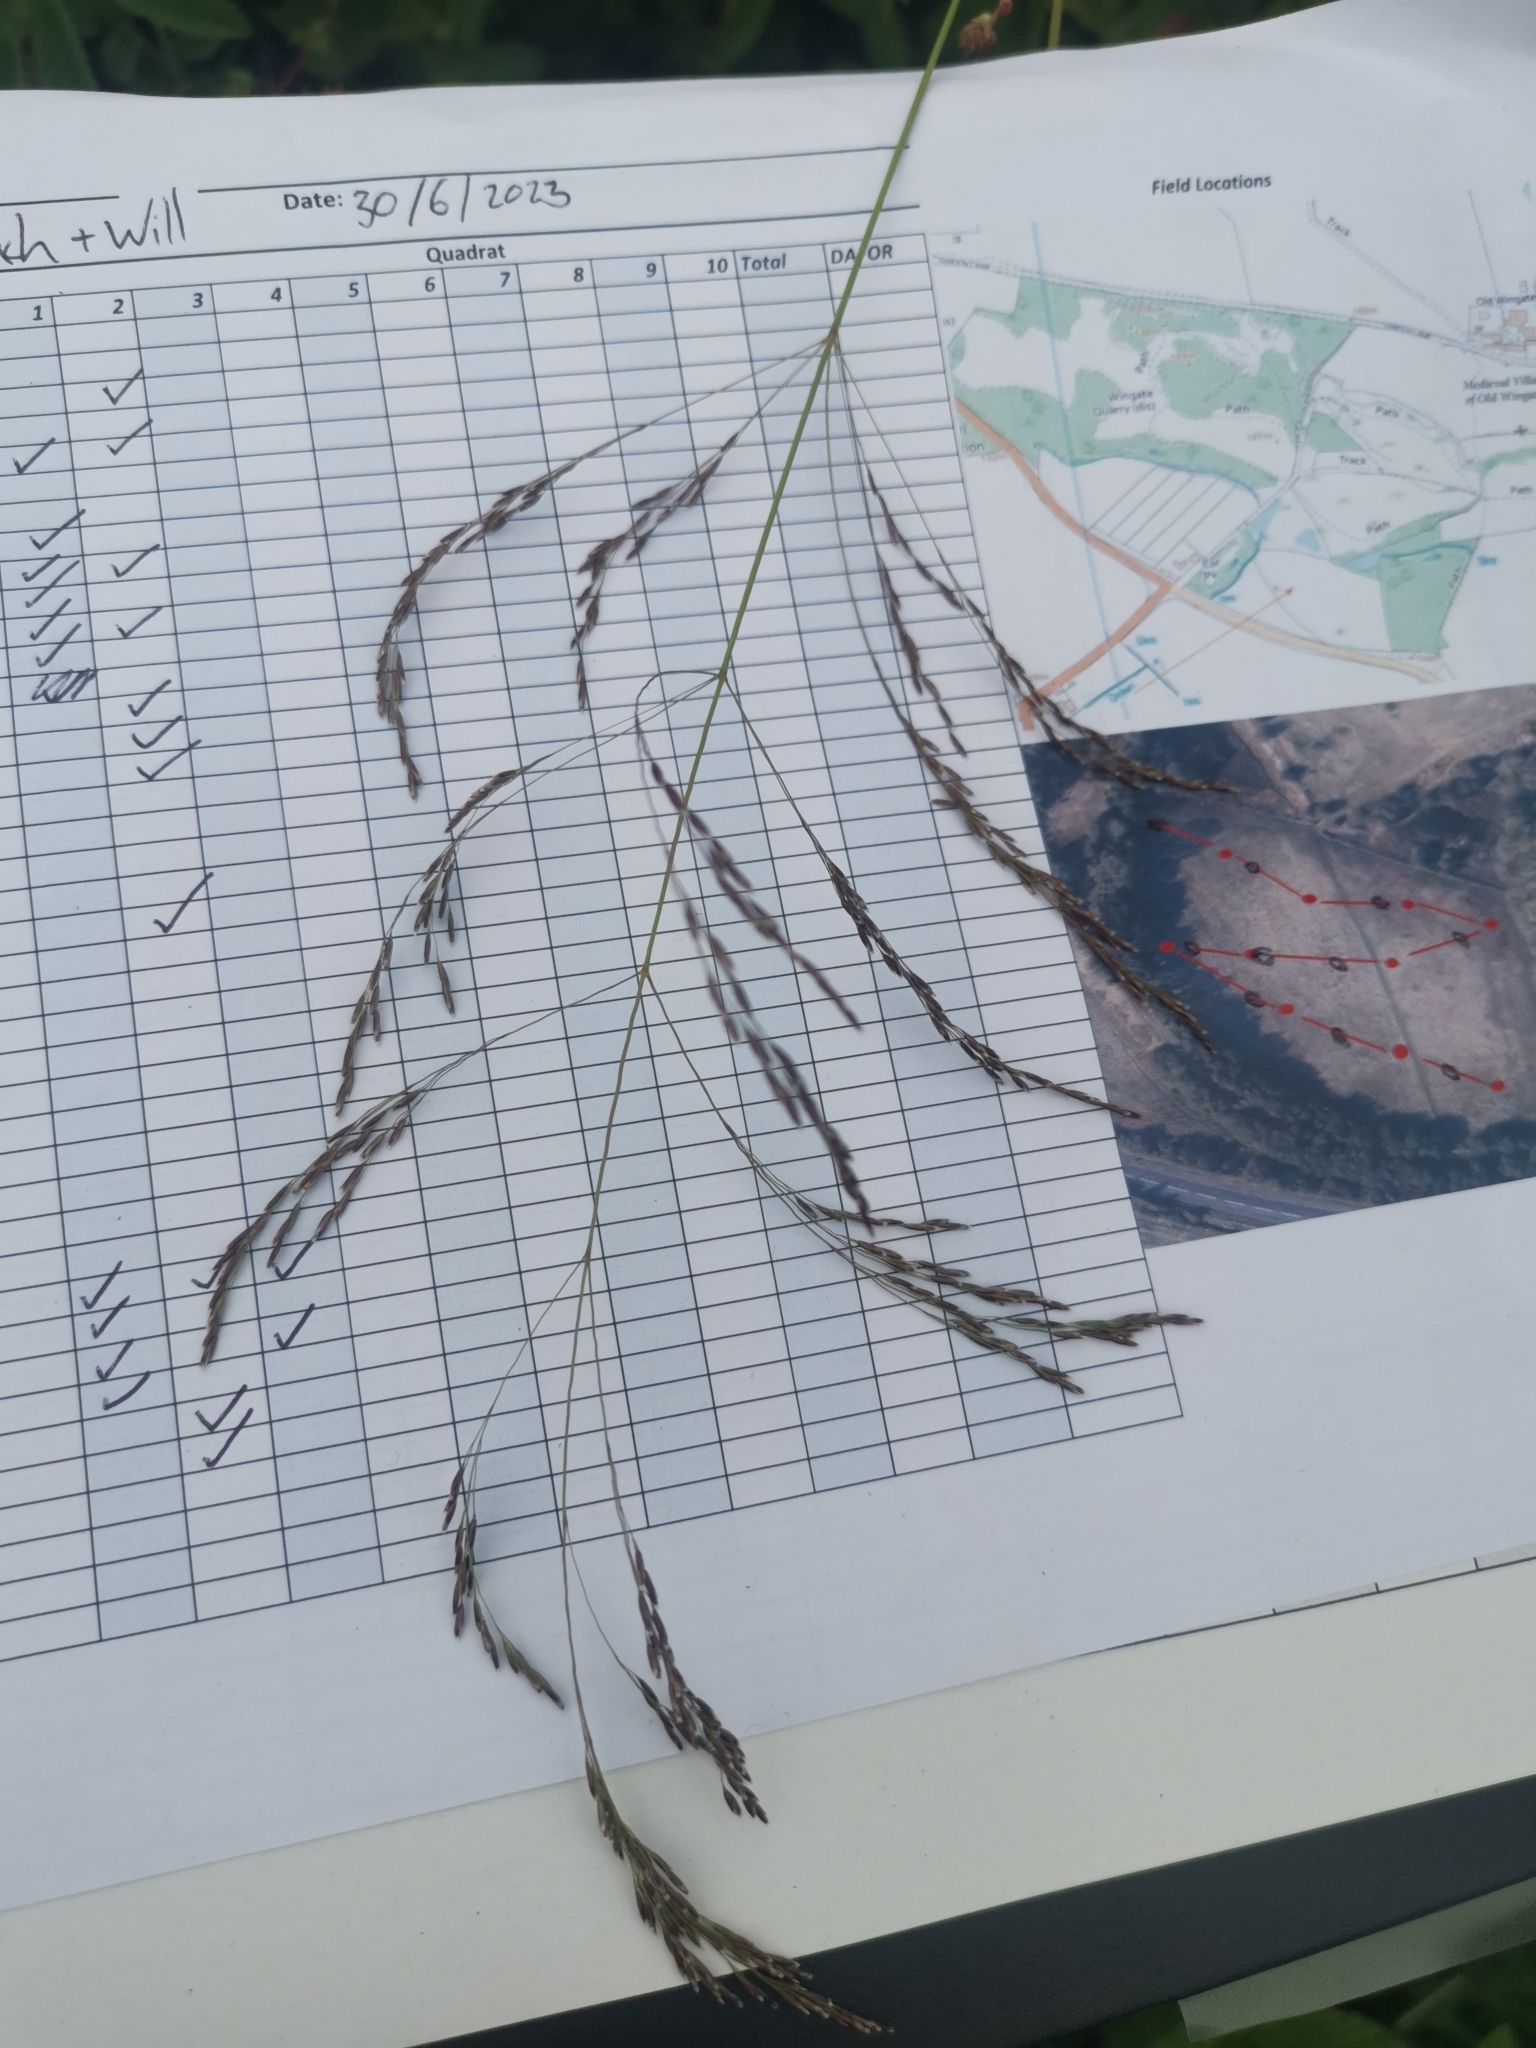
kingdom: Plantae
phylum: Tracheophyta
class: Liliopsida
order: Poales
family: Poaceae
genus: Deschampsia
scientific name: Deschampsia cespitosa
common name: Tufted hair-grass
